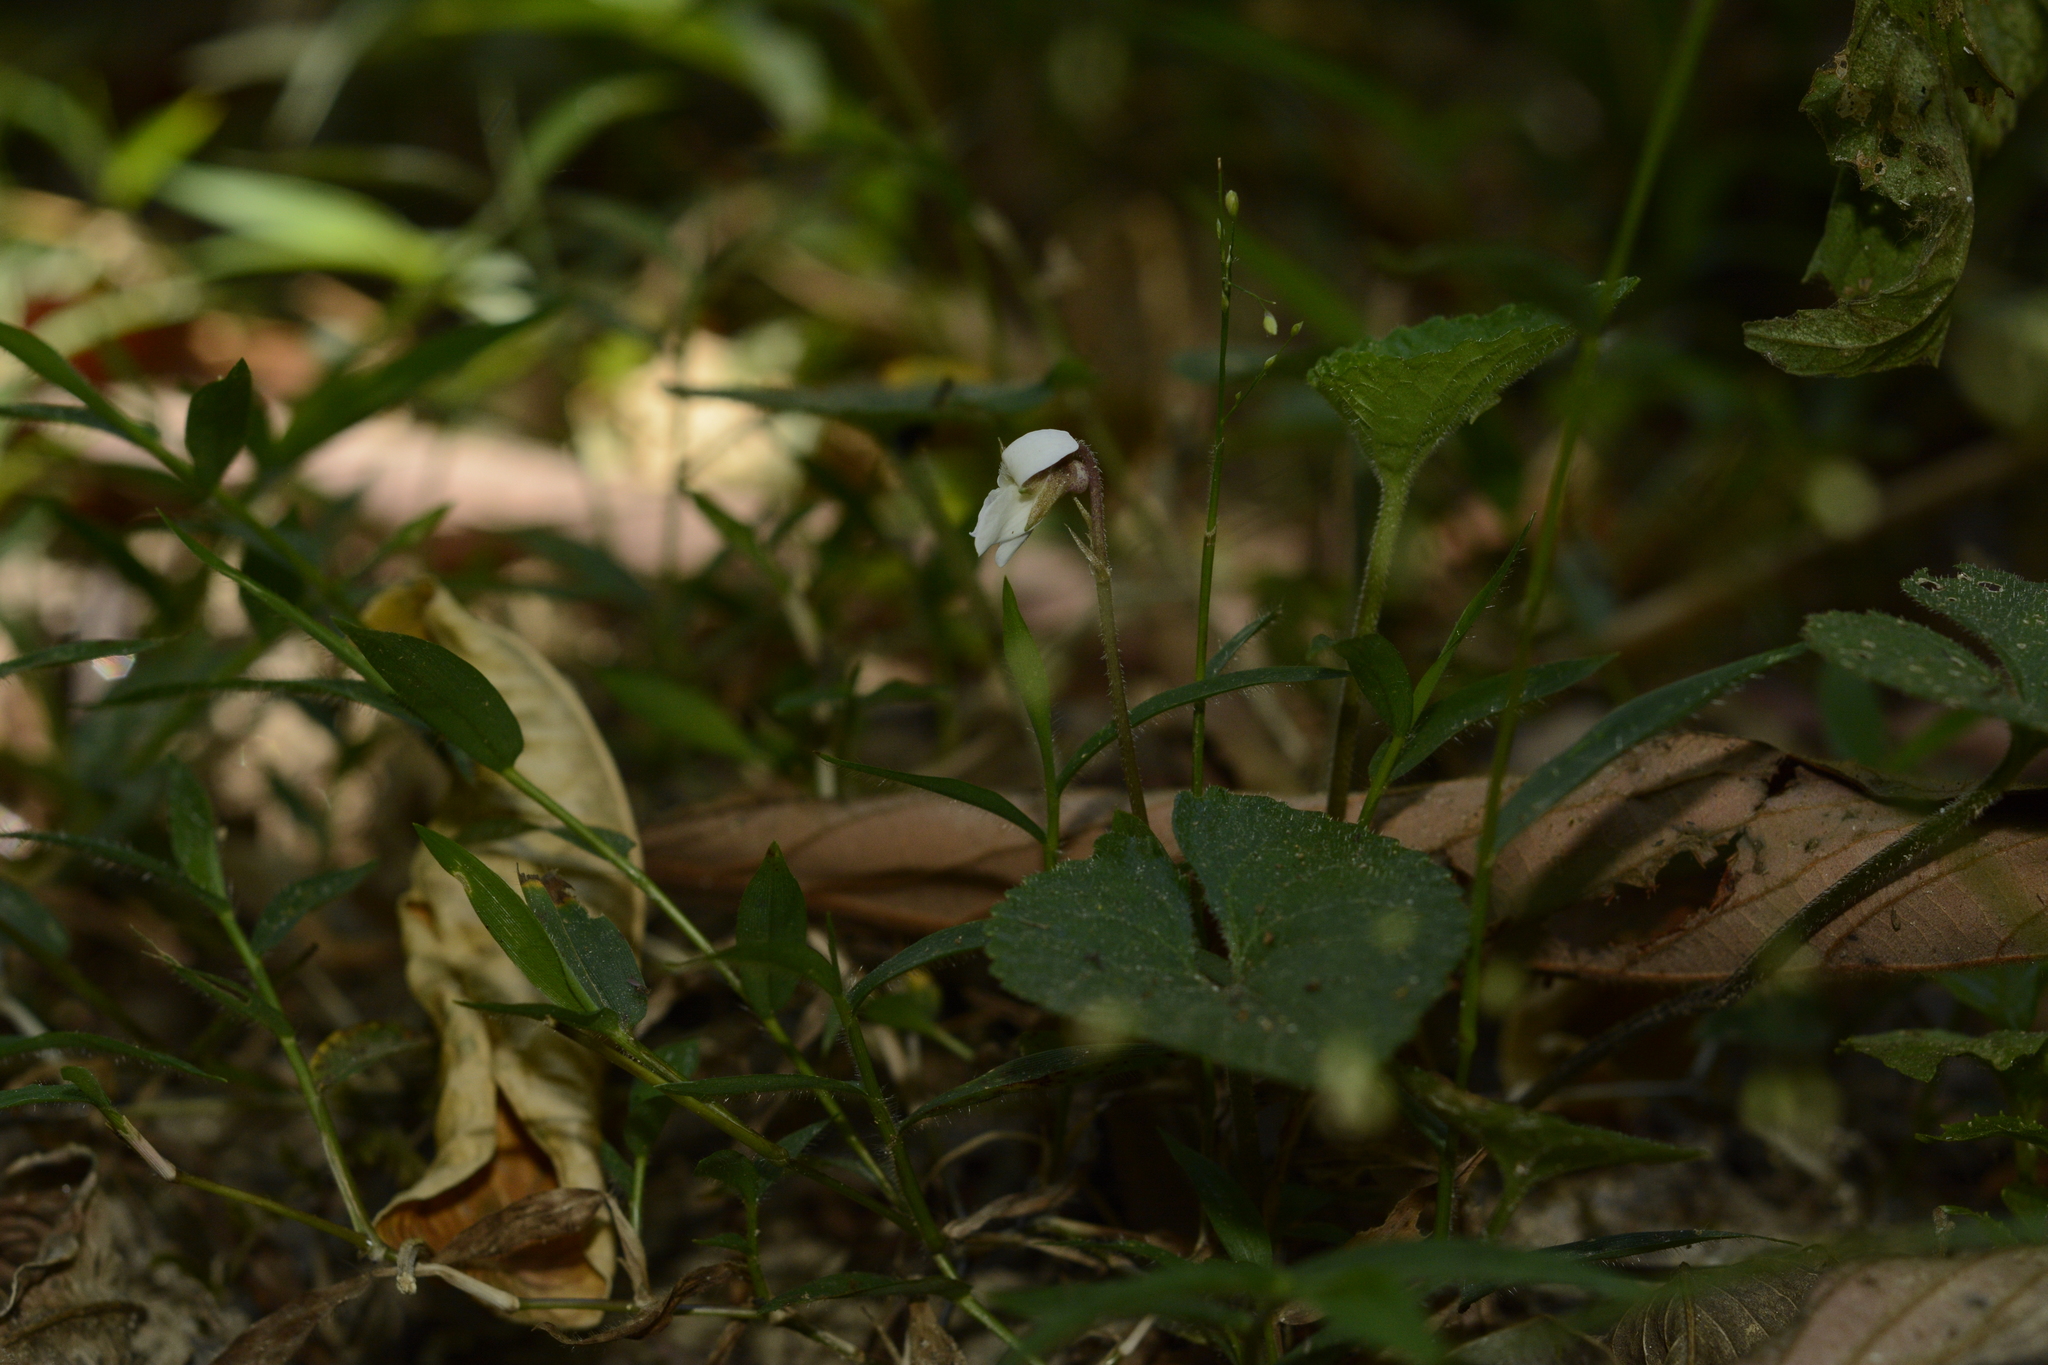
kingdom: Plantae
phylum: Tracheophyta
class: Magnoliopsida
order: Malpighiales
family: Violaceae
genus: Viola
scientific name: Viola pilosa
